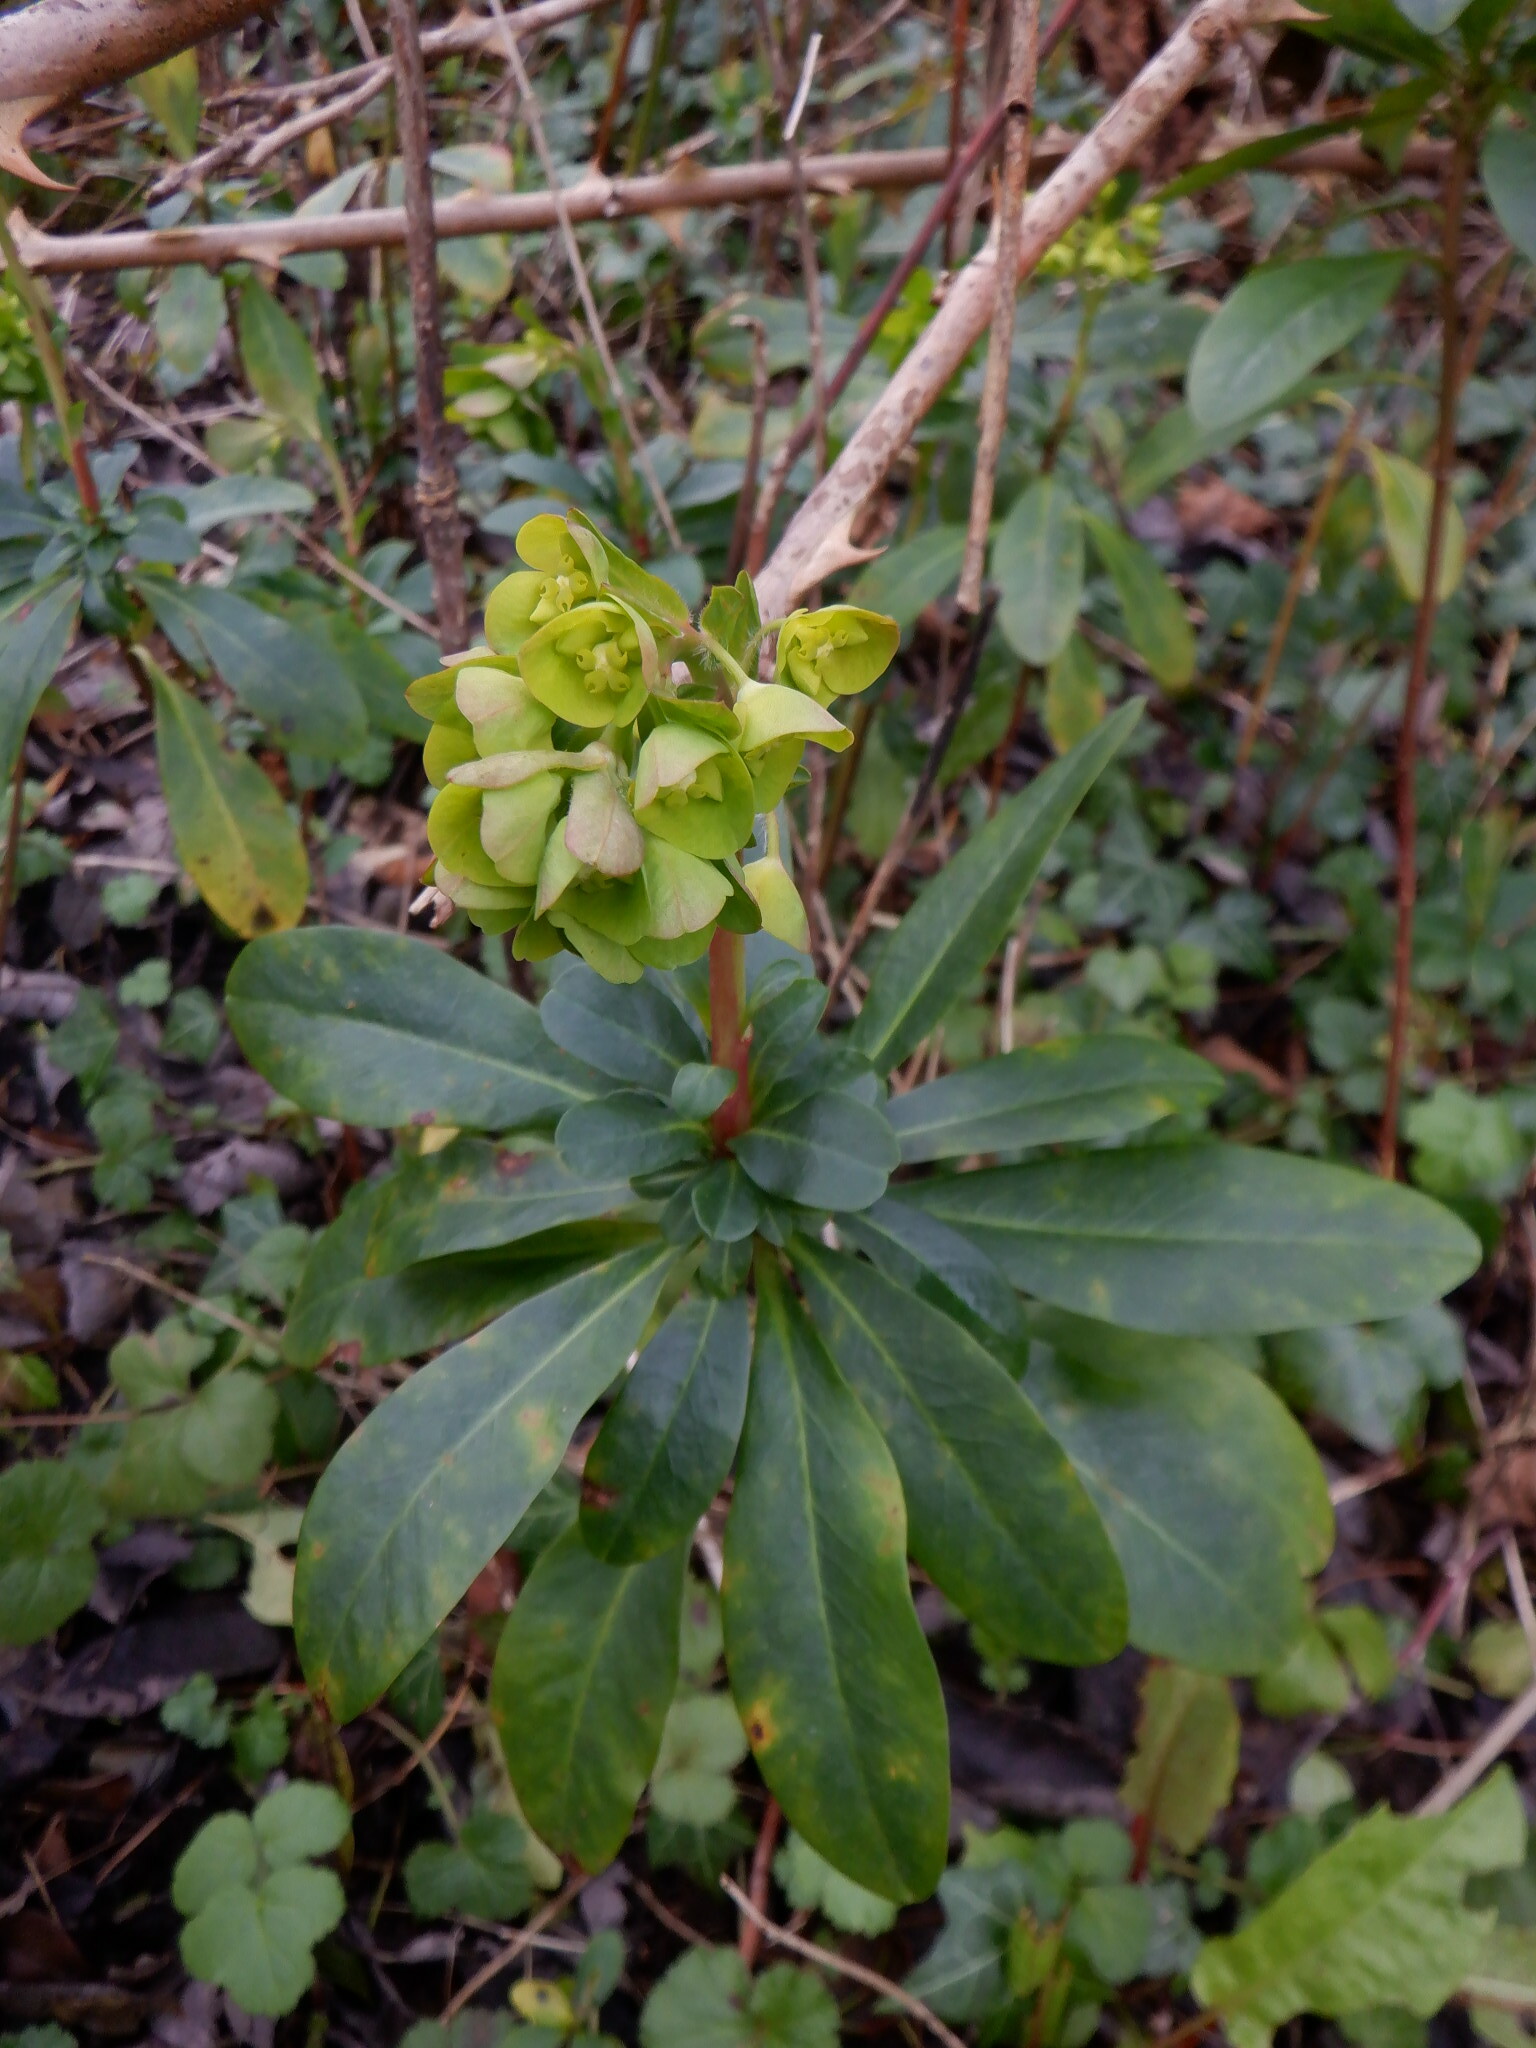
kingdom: Plantae
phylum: Tracheophyta
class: Magnoliopsida
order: Malpighiales
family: Euphorbiaceae
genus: Euphorbia
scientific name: Euphorbia amygdaloides
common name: Wood spurge
